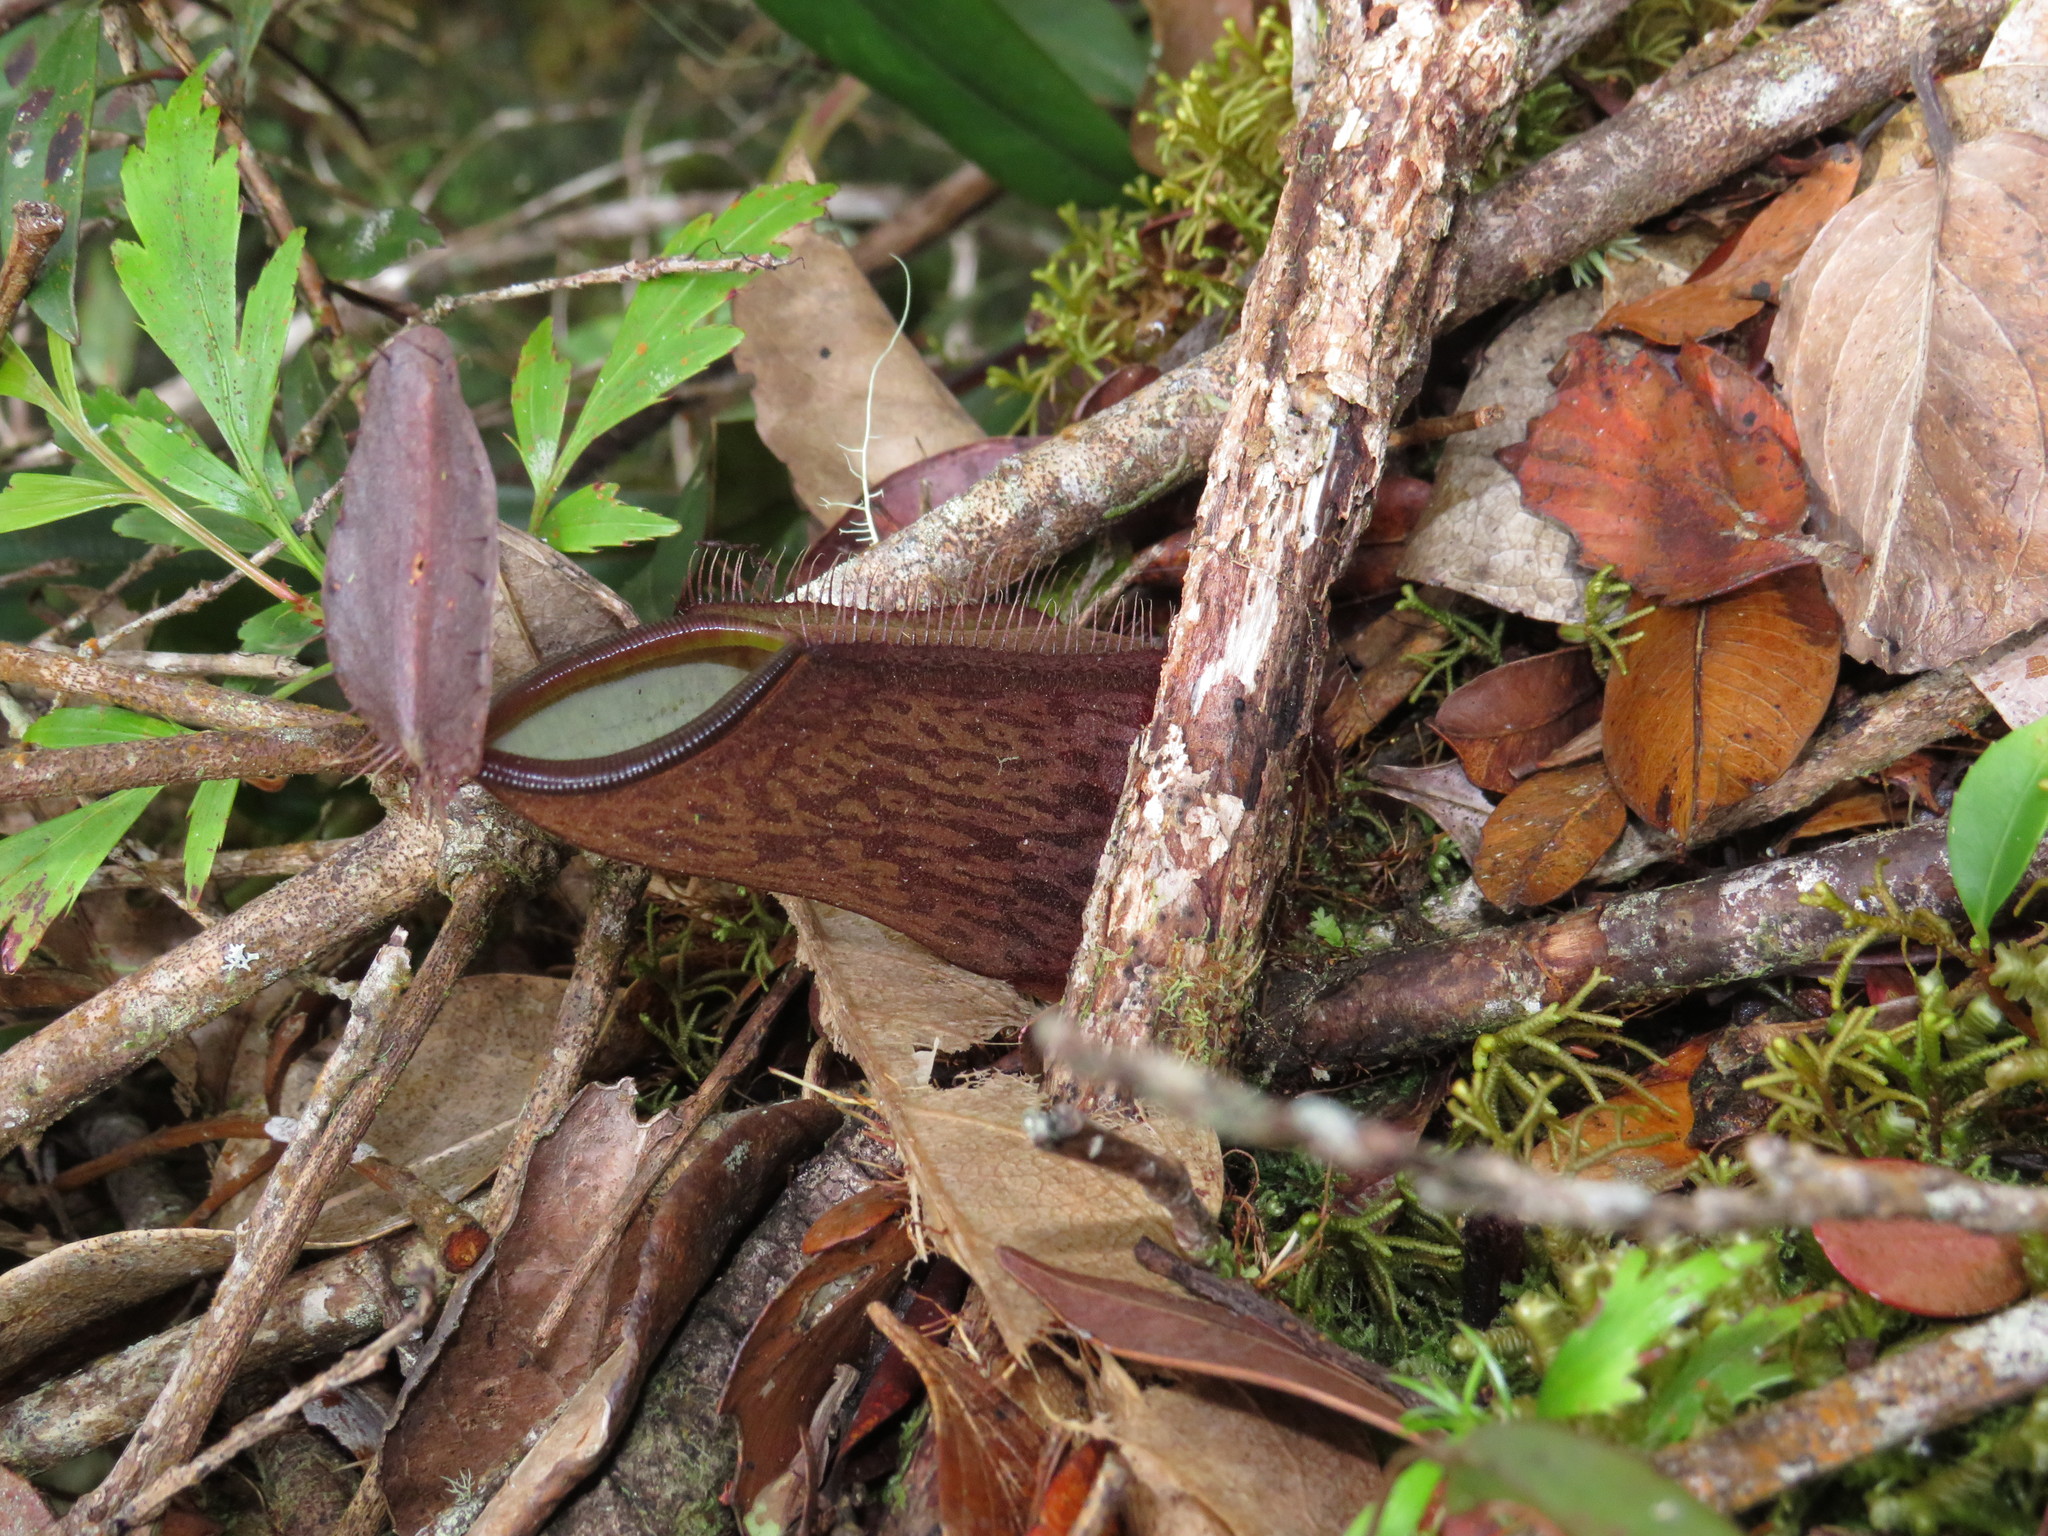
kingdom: Plantae
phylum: Tracheophyta
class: Magnoliopsida
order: Caryophyllales
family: Nepenthaceae
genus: Nepenthes
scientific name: Nepenthes tentaculata
